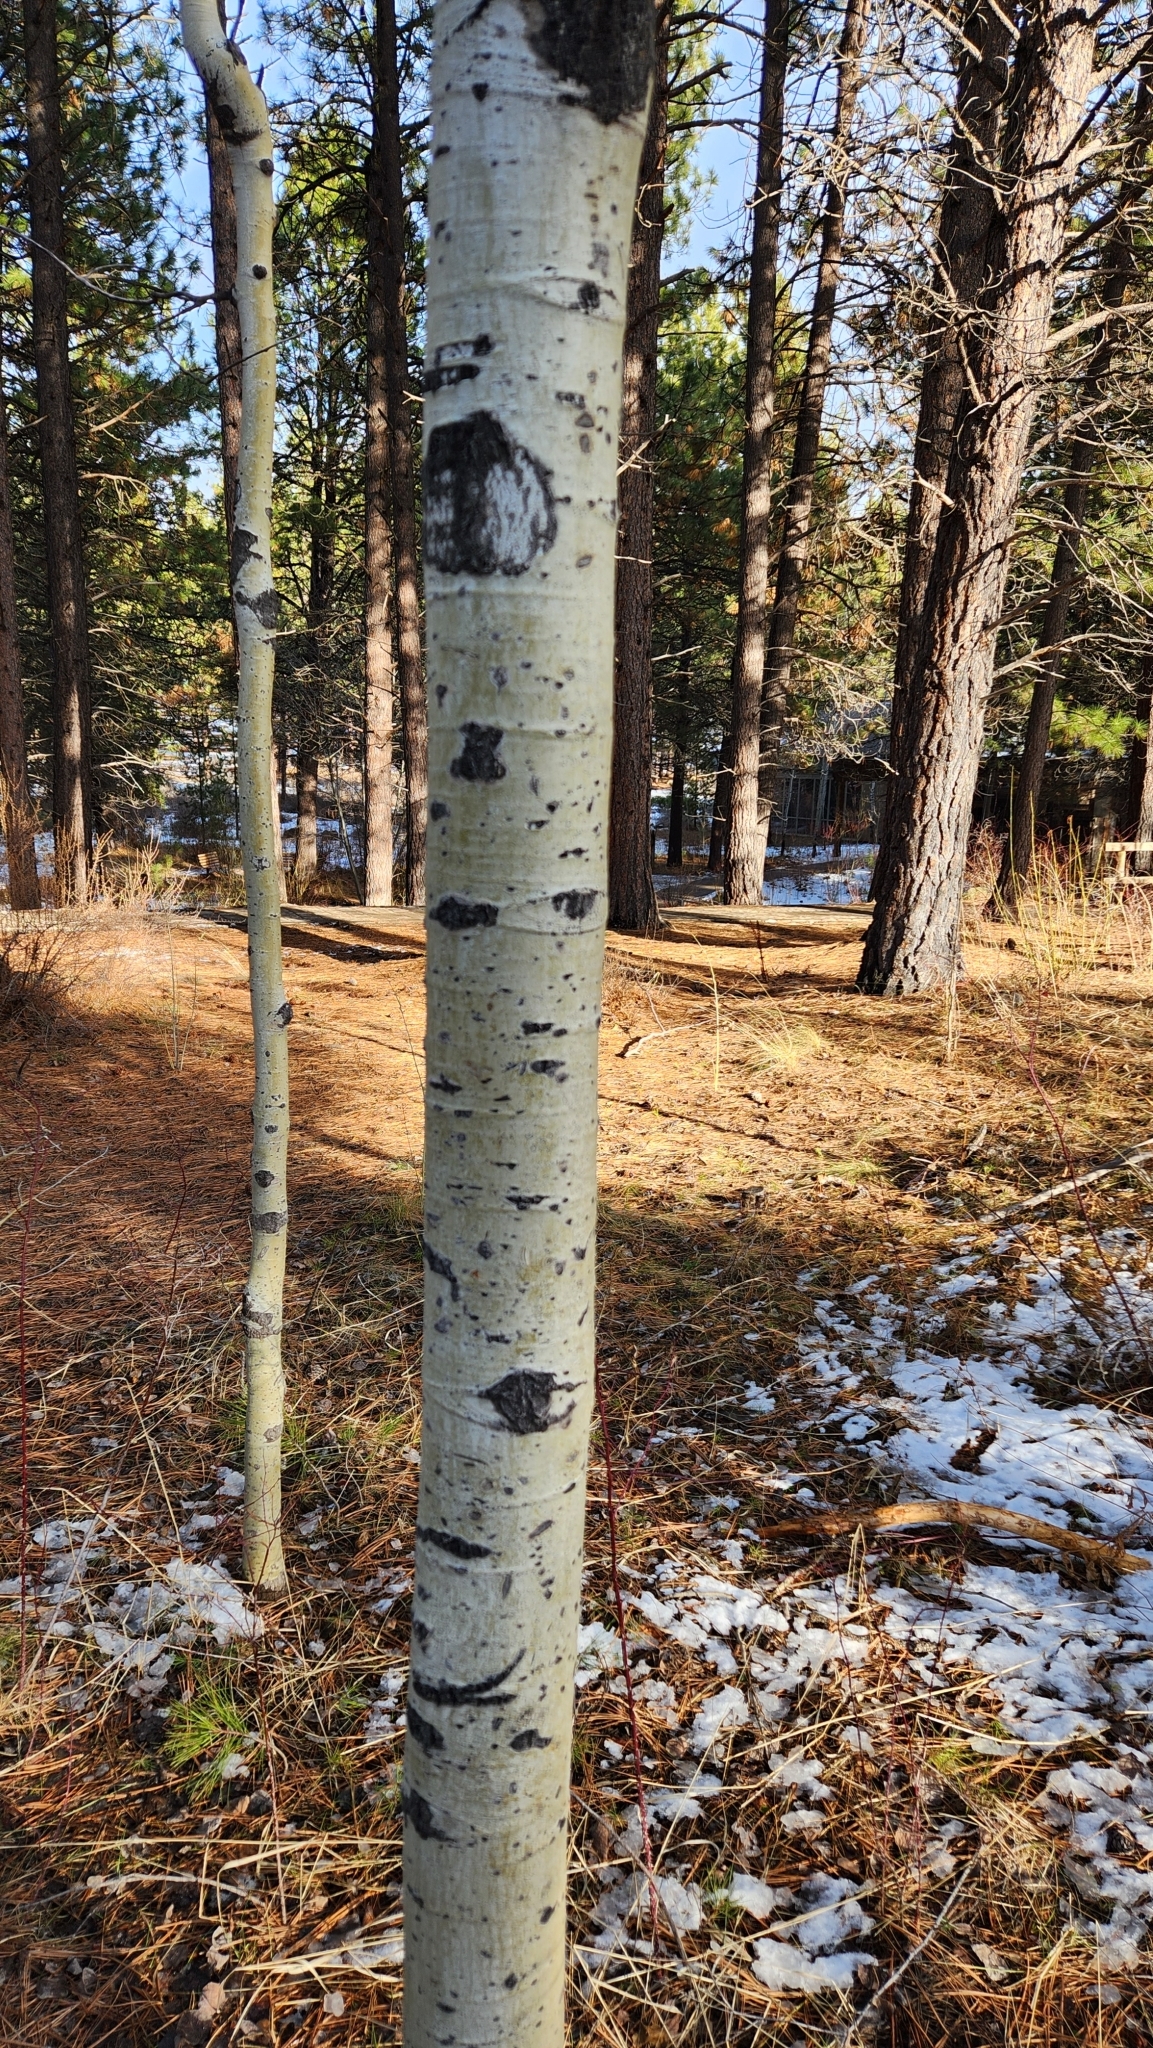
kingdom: Plantae
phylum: Tracheophyta
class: Magnoliopsida
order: Malpighiales
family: Salicaceae
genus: Populus
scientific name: Populus tremuloides
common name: Quaking aspen
